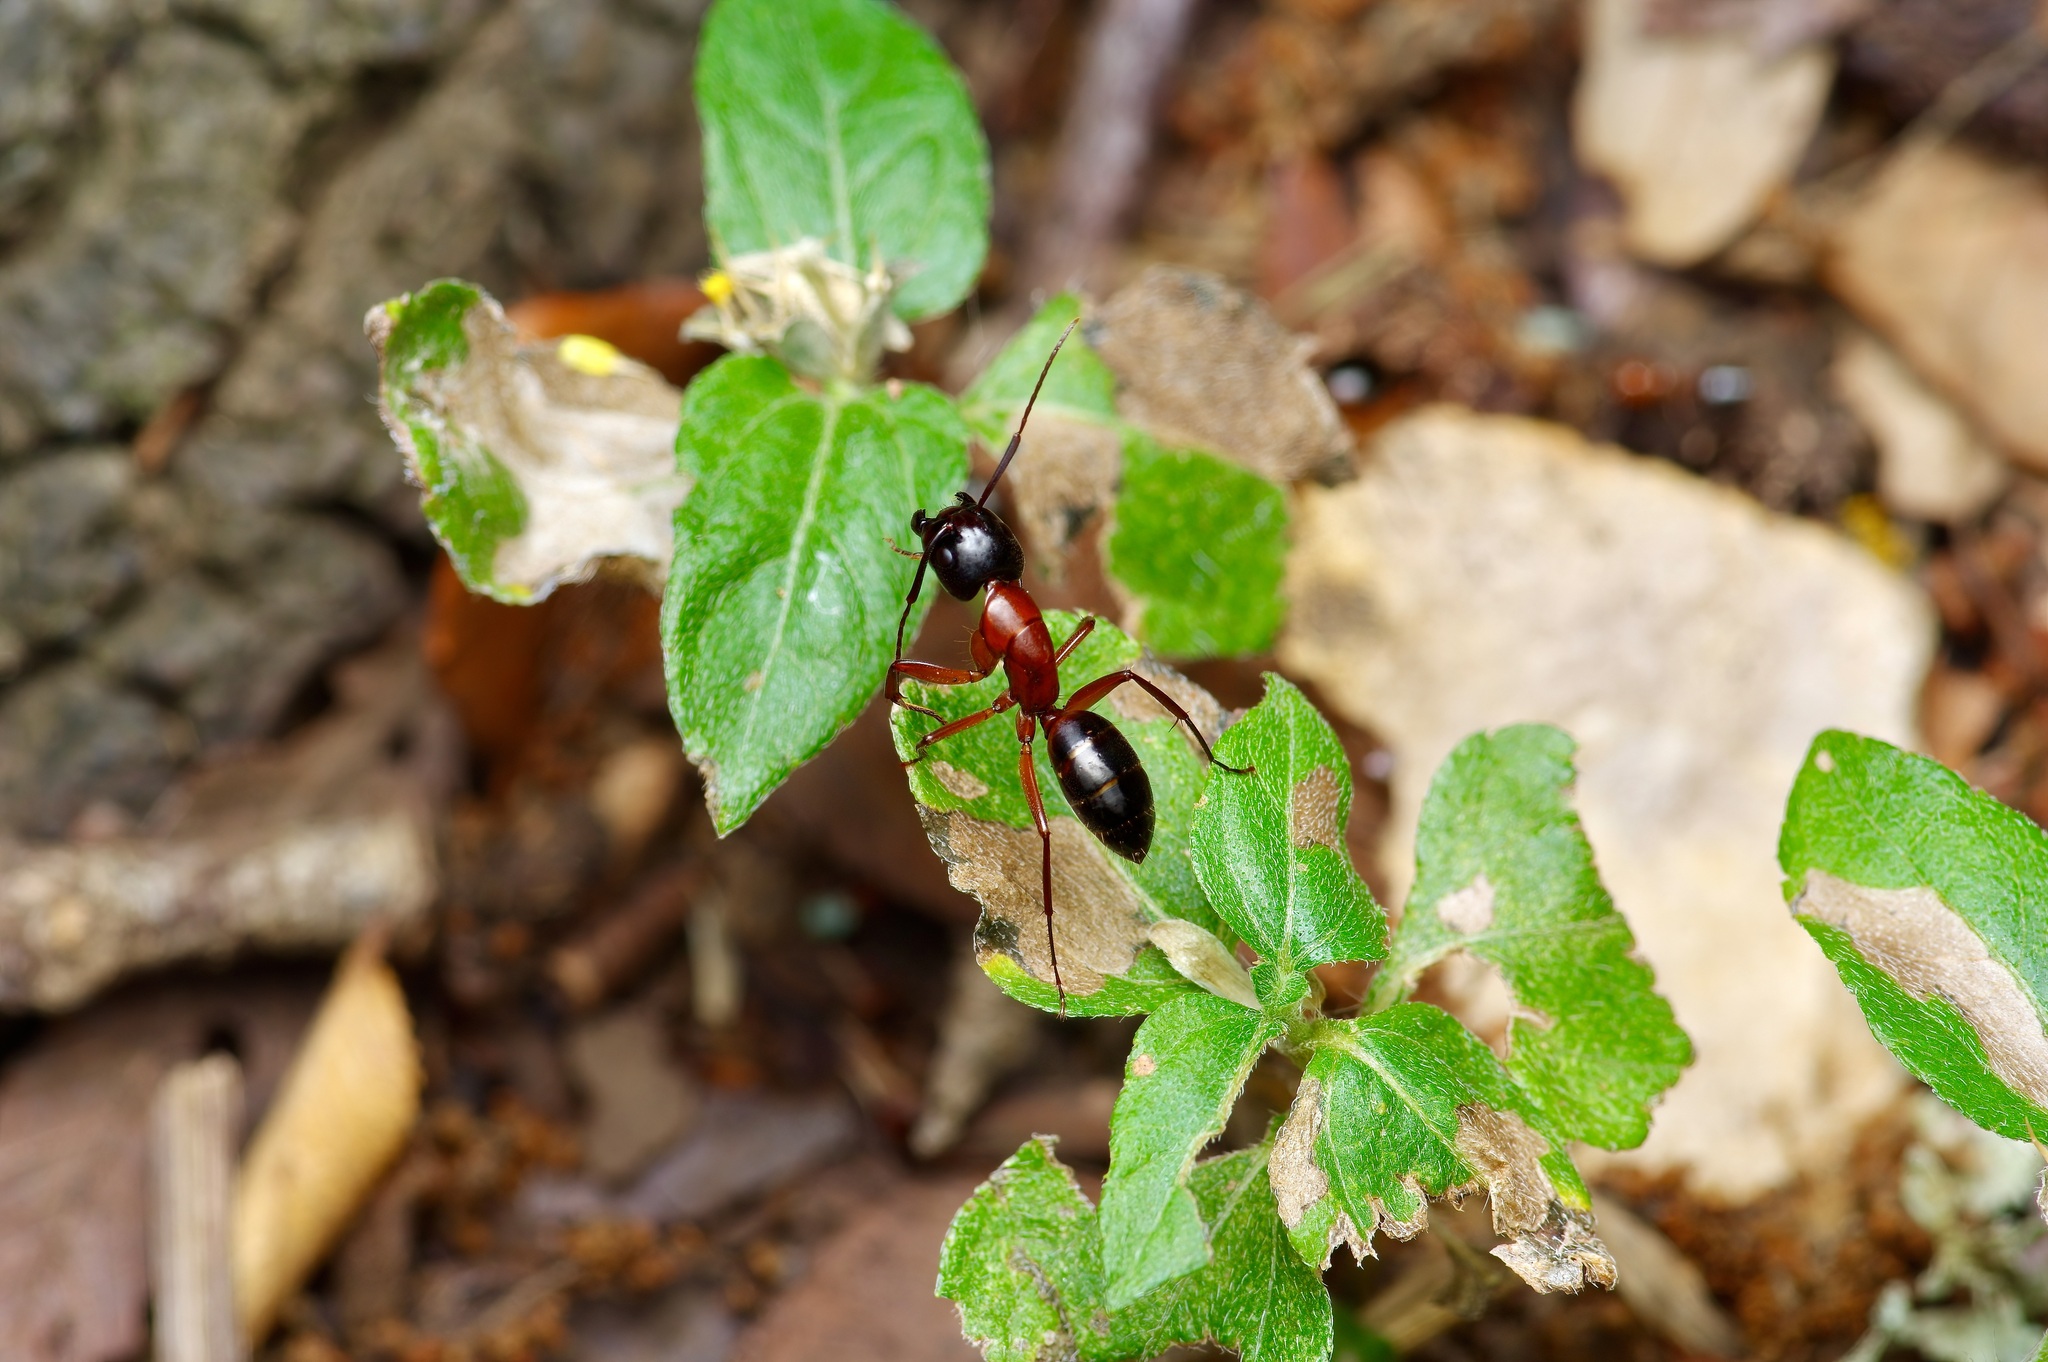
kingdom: Animalia
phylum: Arthropoda
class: Insecta
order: Hymenoptera
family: Formicidae
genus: Camponotus
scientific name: Camponotus texanus
